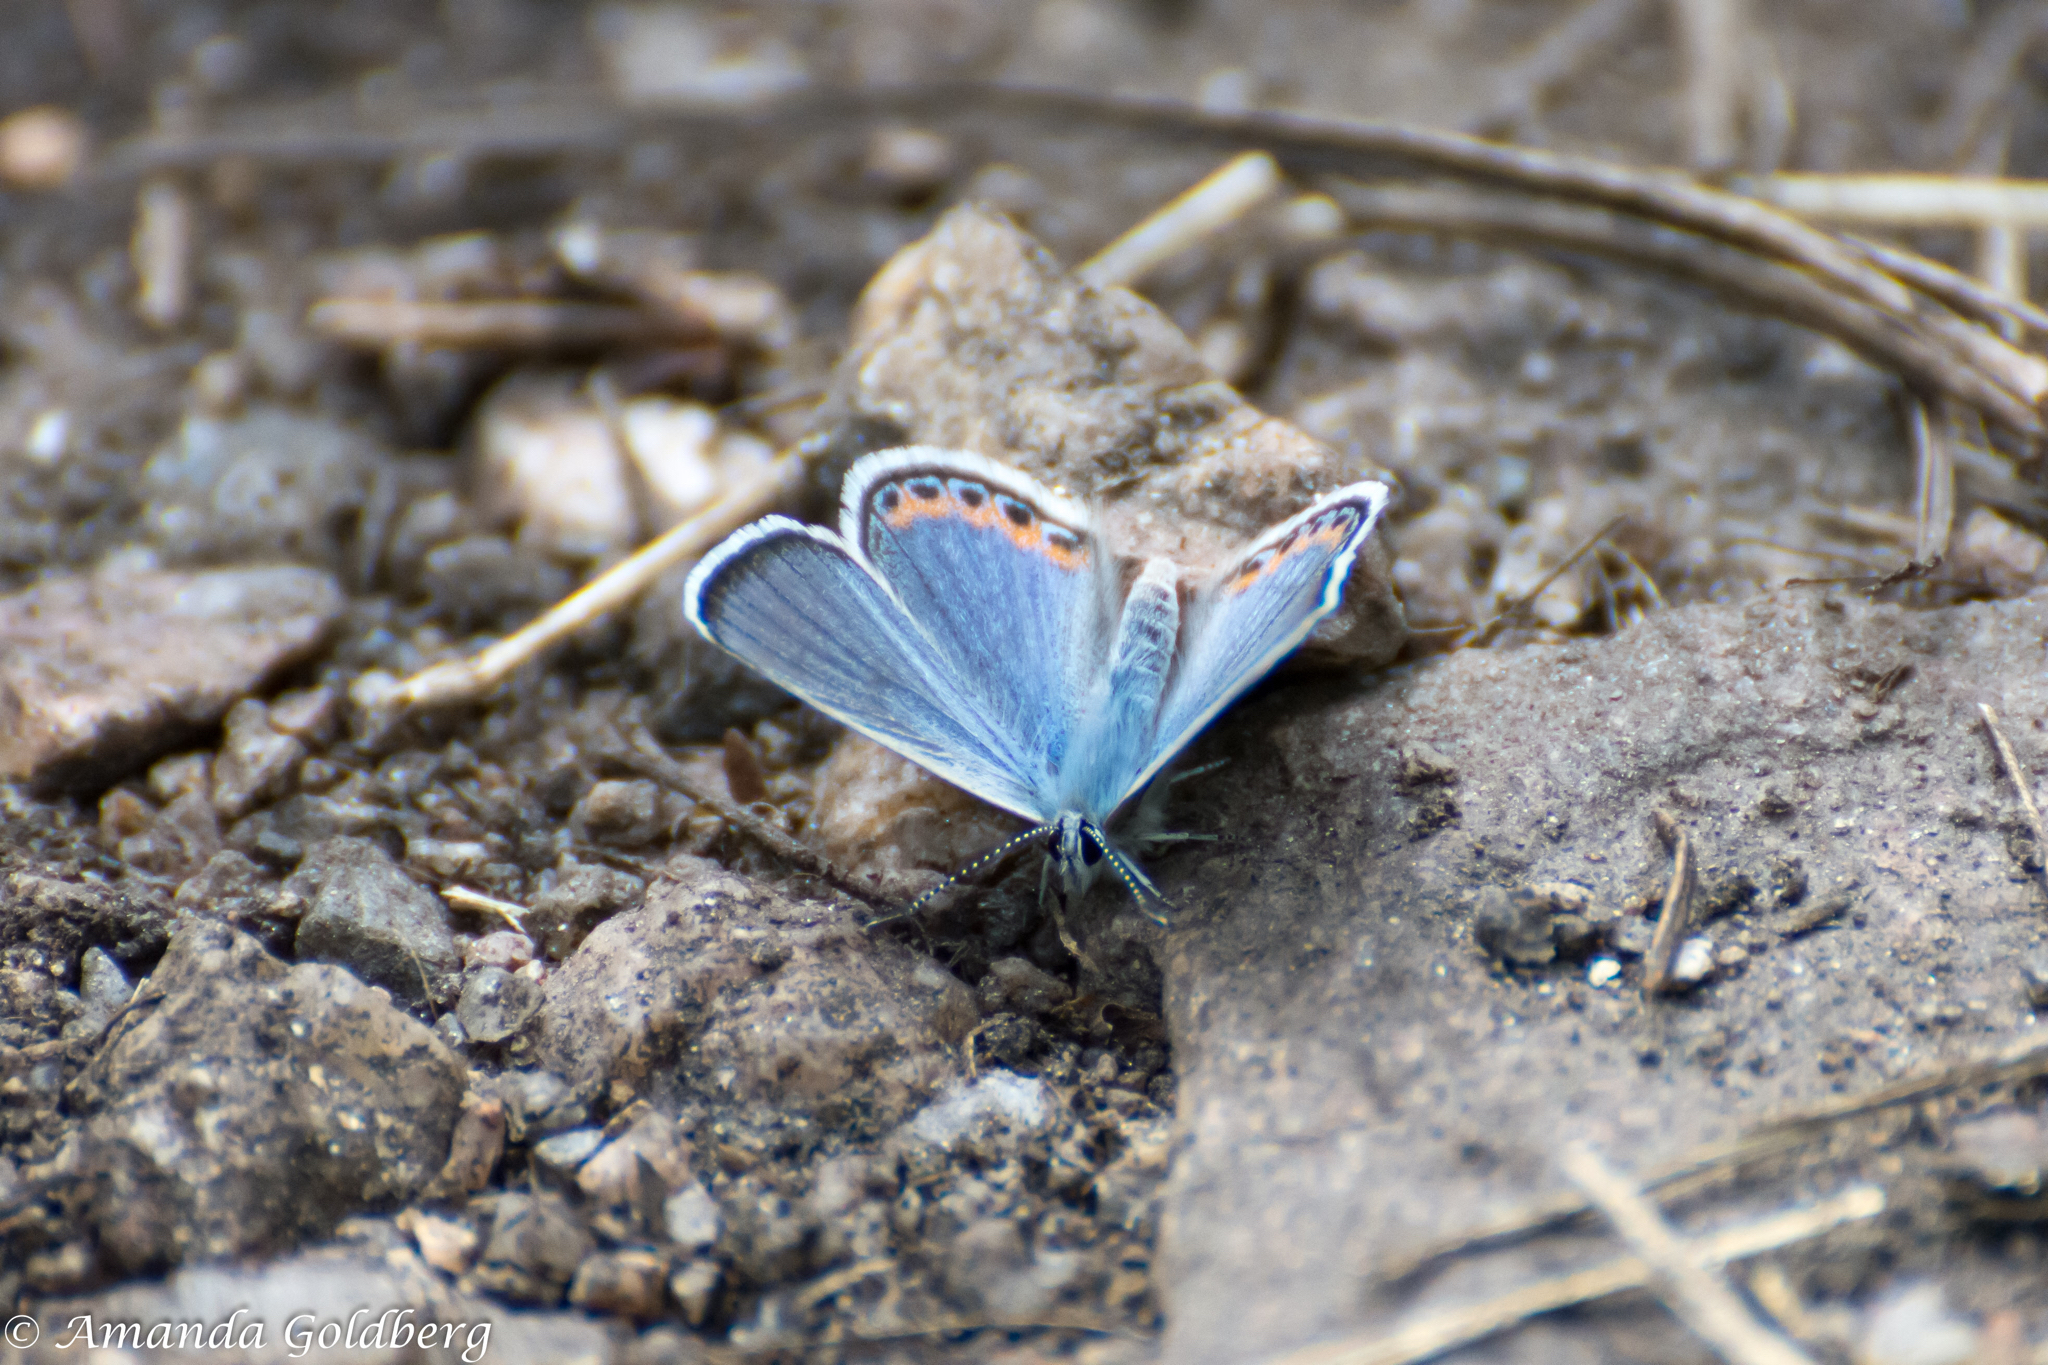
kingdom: Animalia
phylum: Arthropoda
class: Insecta
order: Lepidoptera
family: Lycaenidae
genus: Icaricia
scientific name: Icaricia lupini
